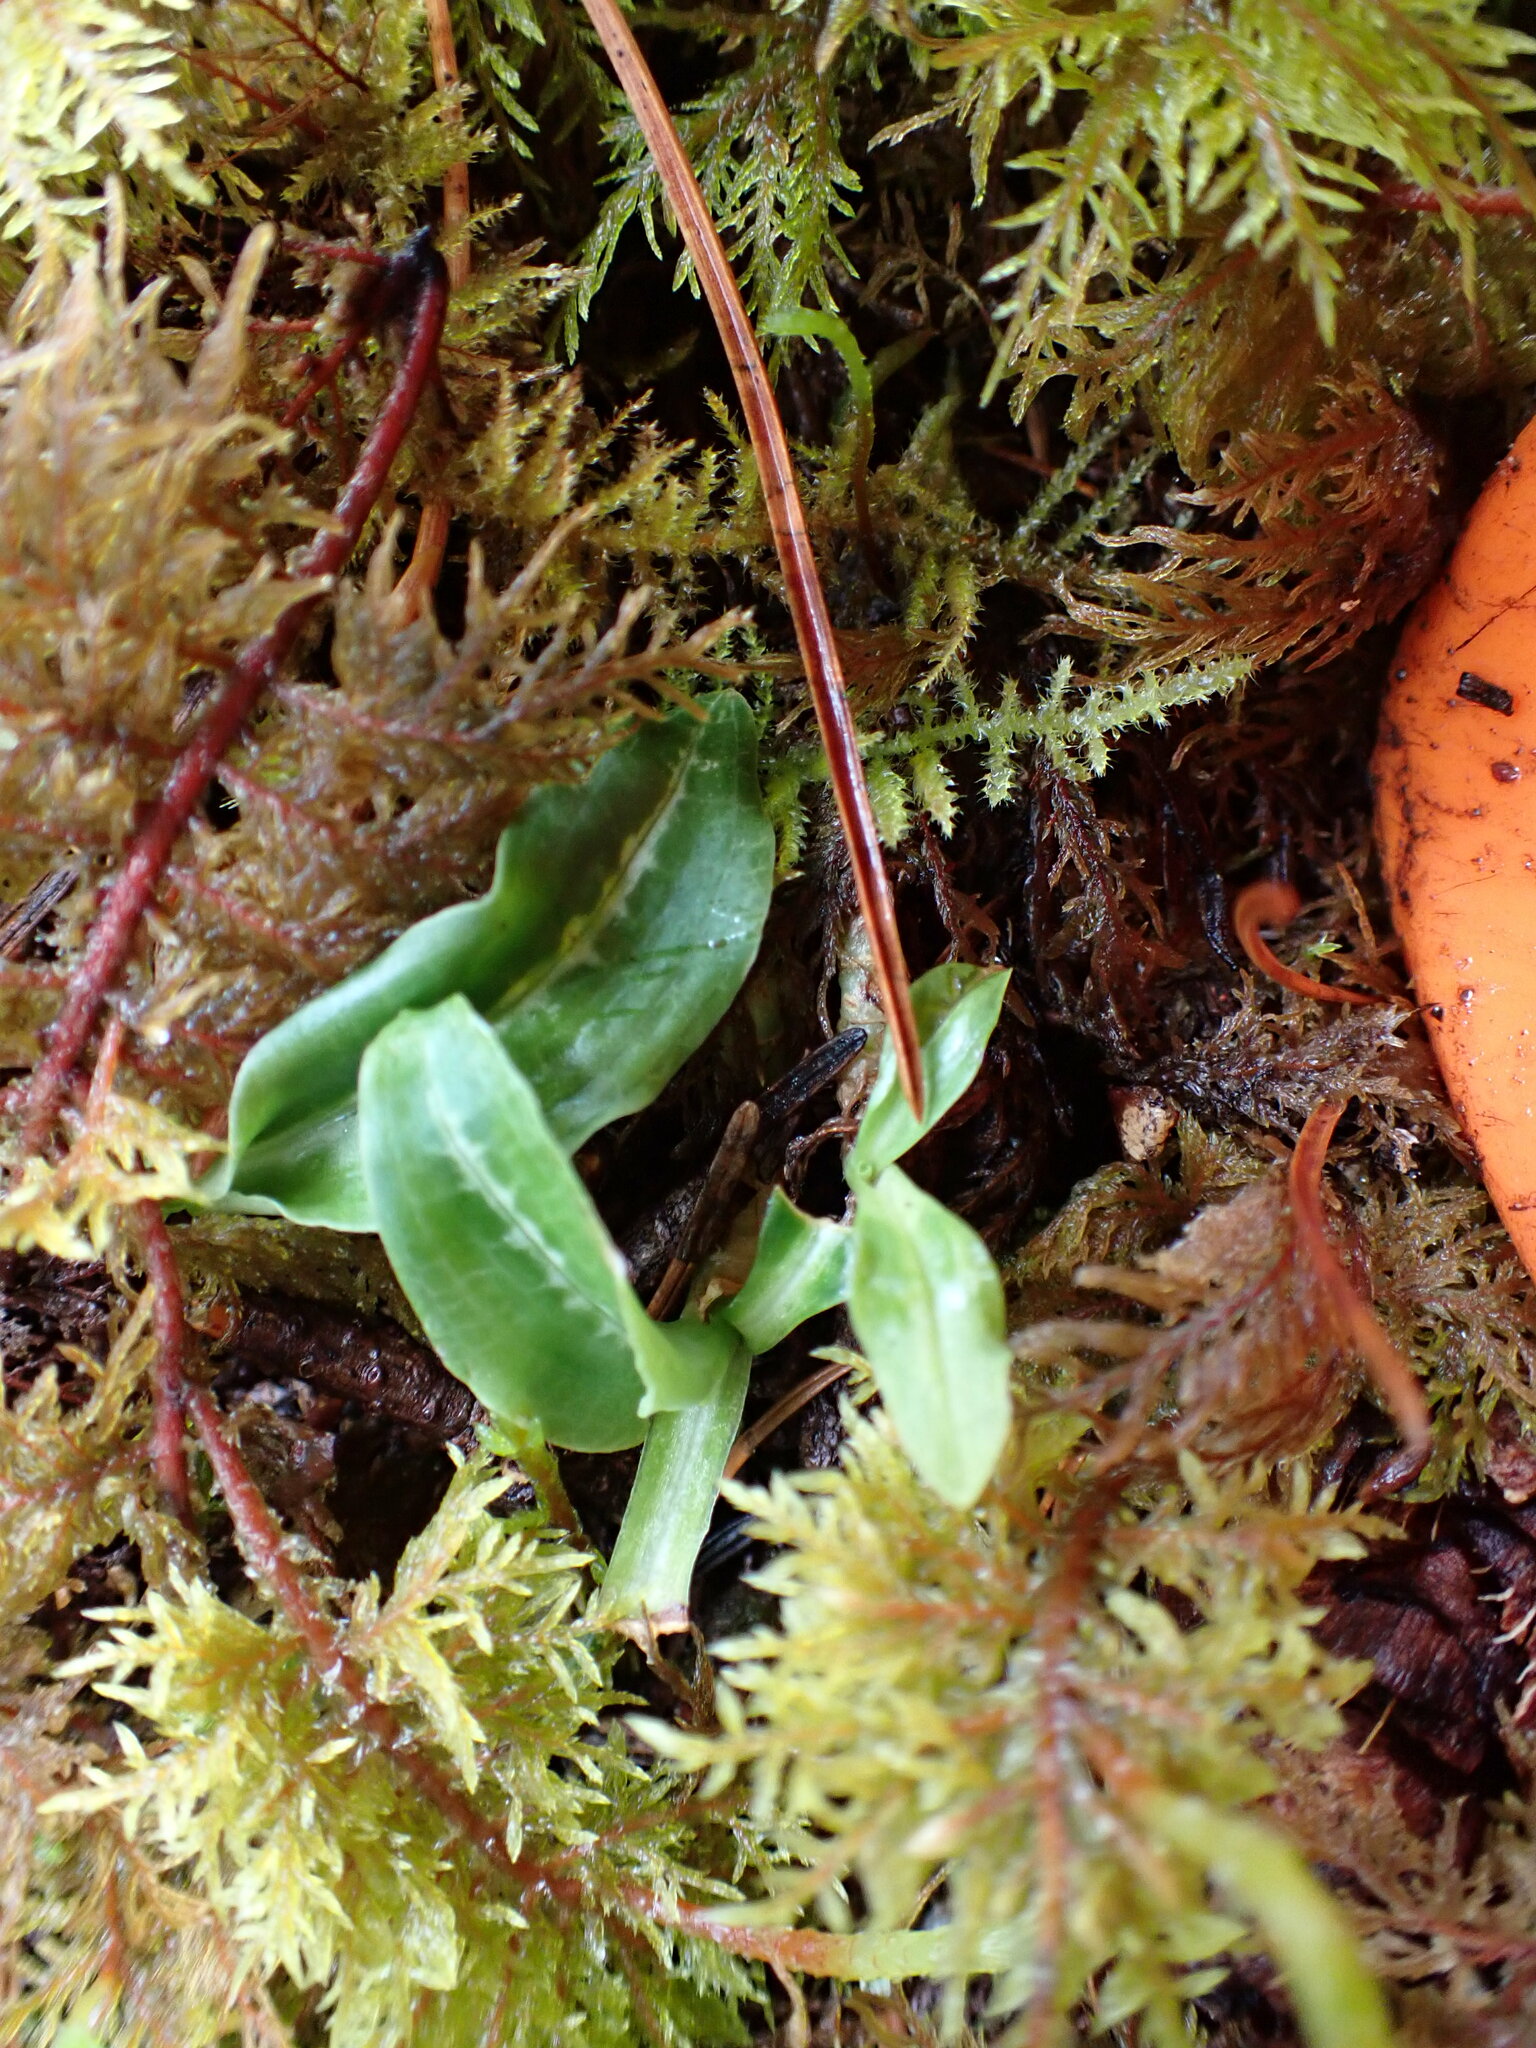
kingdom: Plantae
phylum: Tracheophyta
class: Liliopsida
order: Asparagales
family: Orchidaceae
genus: Goodyera
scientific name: Goodyera oblongifolia
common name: Giant rattlesnake-plantain
